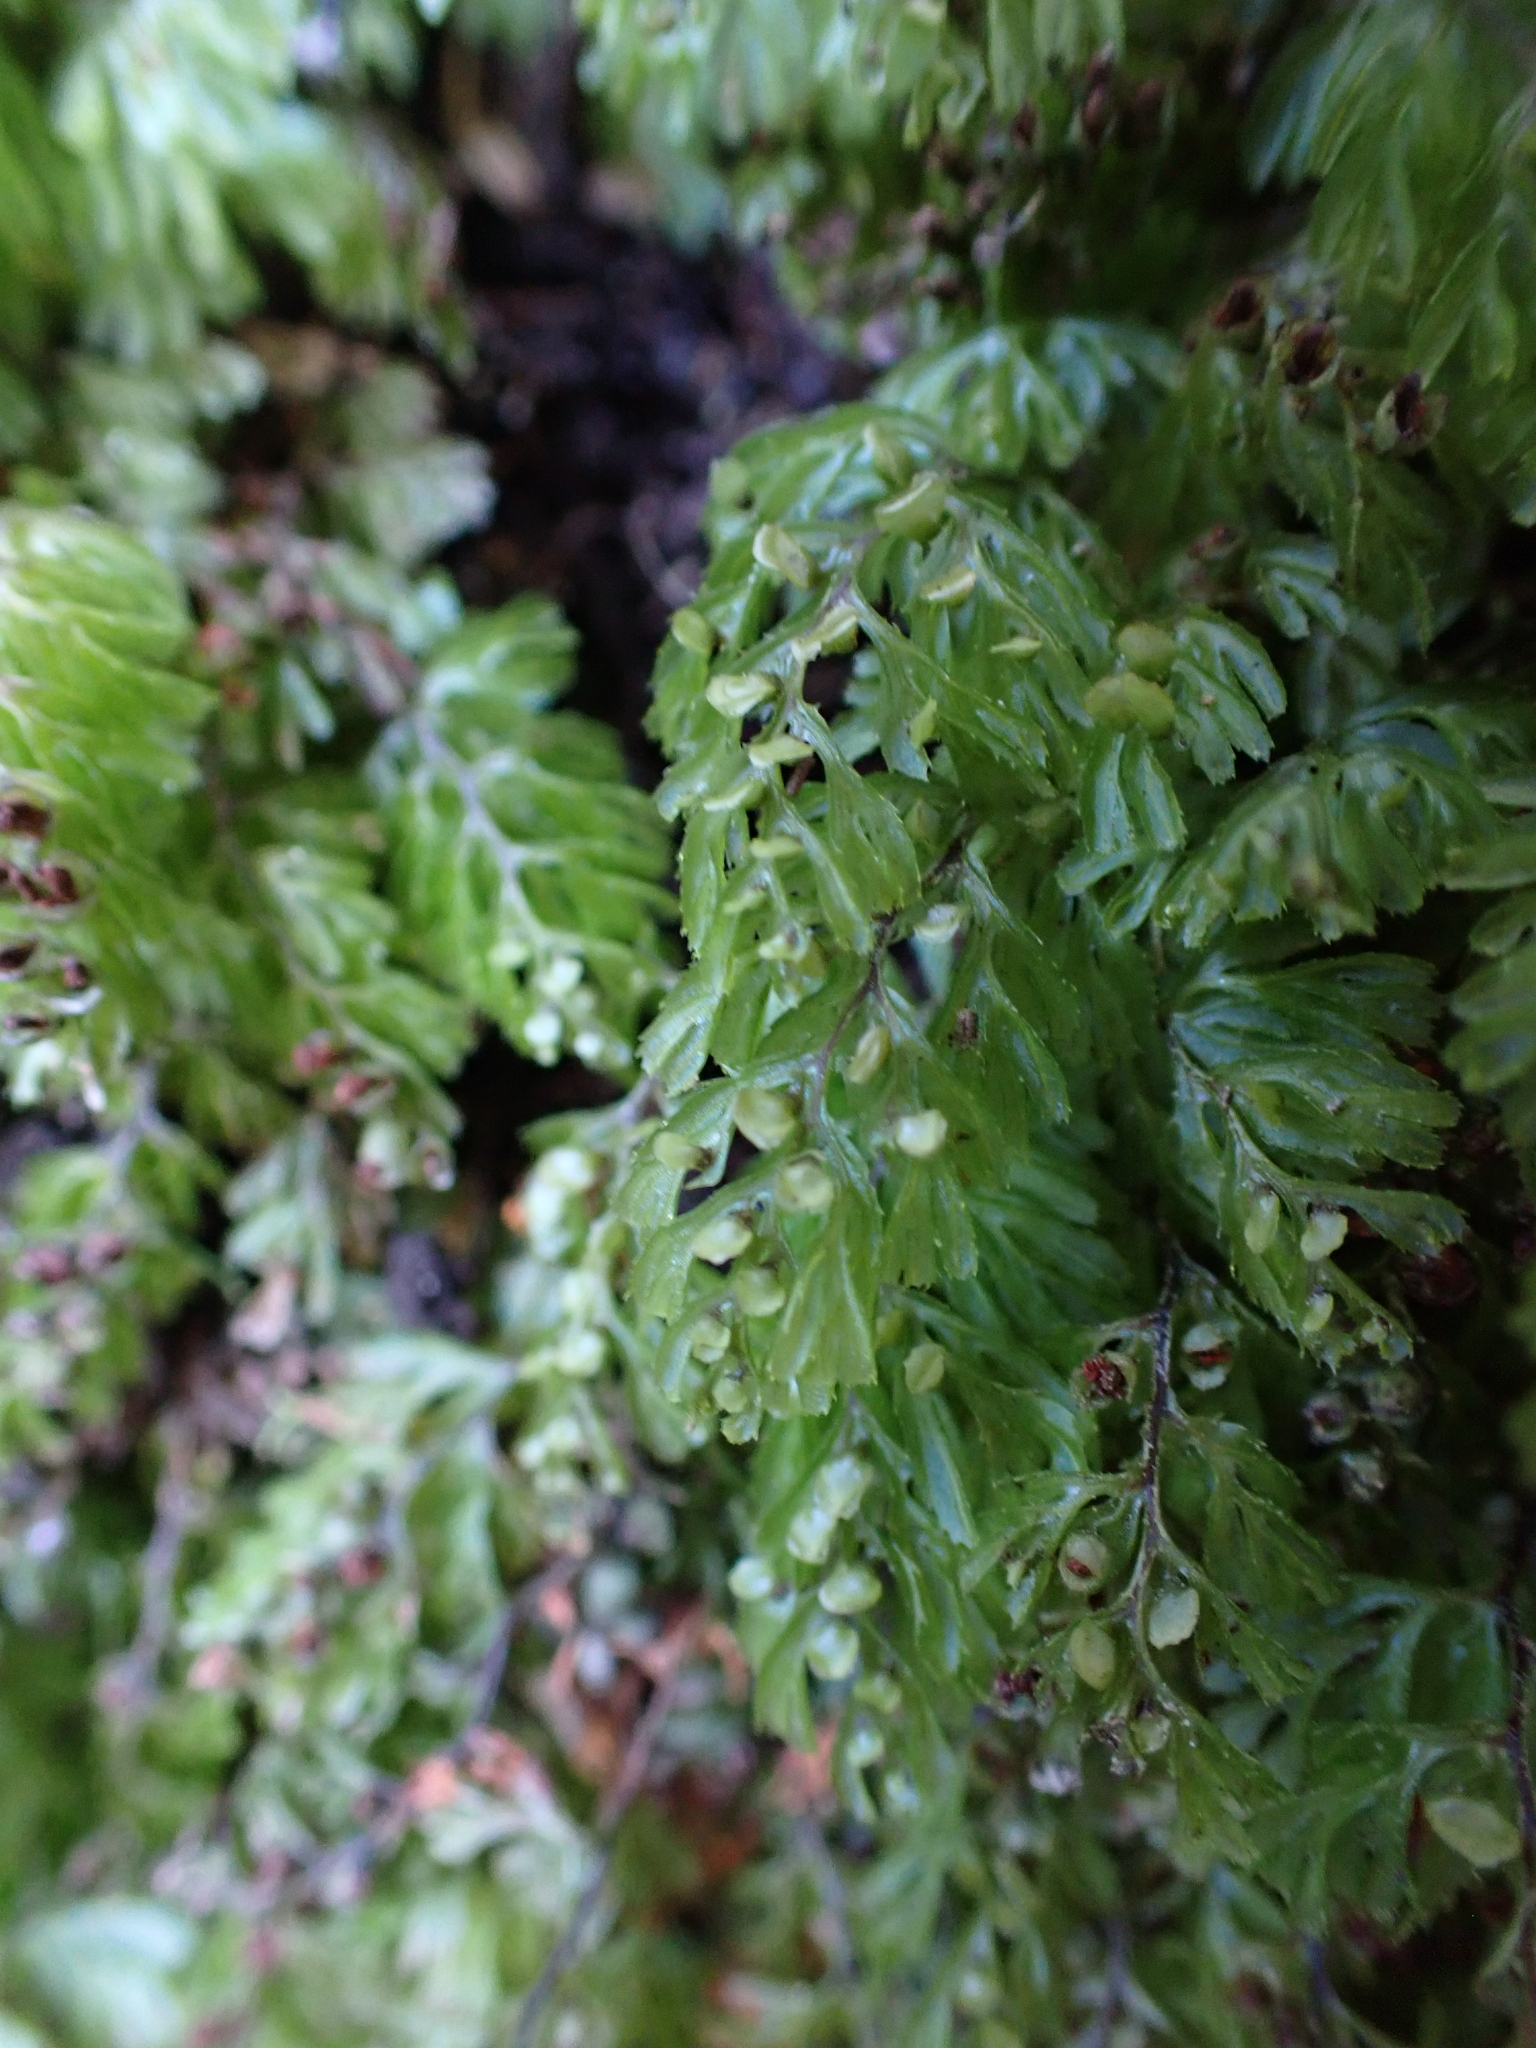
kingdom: Plantae
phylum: Tracheophyta
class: Polypodiopsida
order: Hymenophyllales
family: Hymenophyllaceae
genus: Hymenophyllum
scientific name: Hymenophyllum cupressiforme
